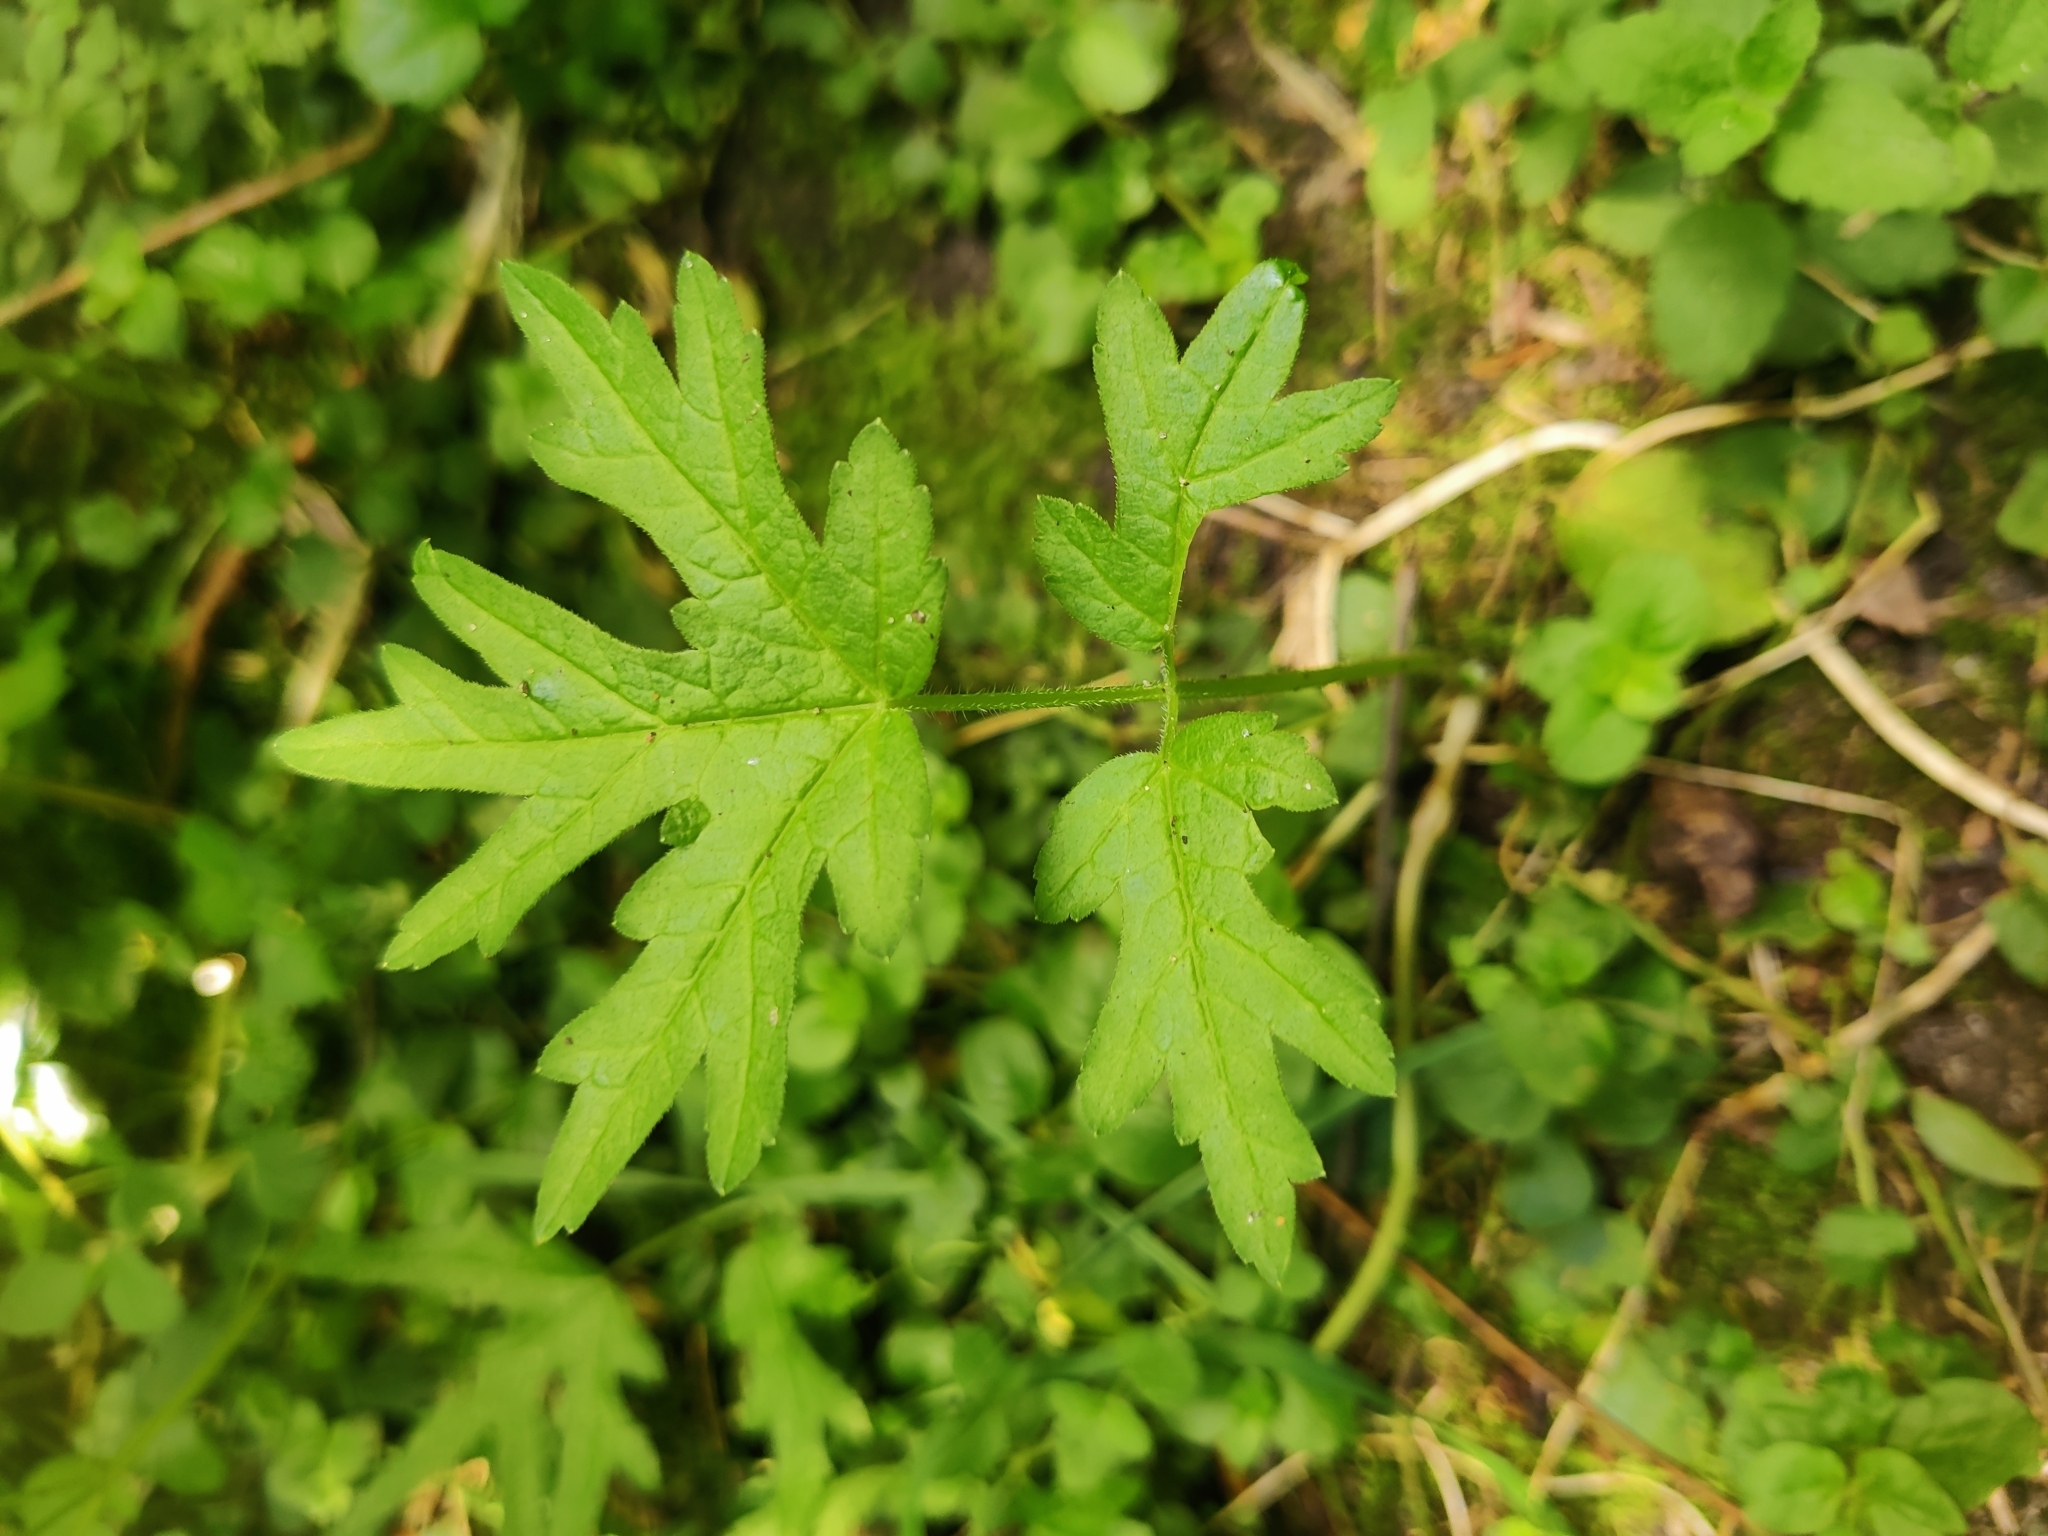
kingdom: Plantae
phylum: Tracheophyta
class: Magnoliopsida
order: Apiales
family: Apiaceae
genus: Heracleum
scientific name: Heracleum sphondylium
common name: Hogweed
